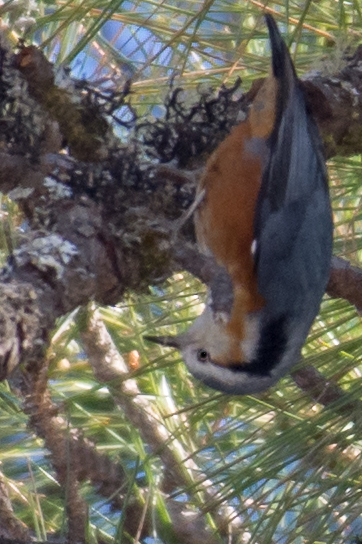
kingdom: Animalia
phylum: Chordata
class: Aves
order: Passeriformes
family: Sittidae
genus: Sitta
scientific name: Sitta victoriae
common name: White-browed nuthatch
